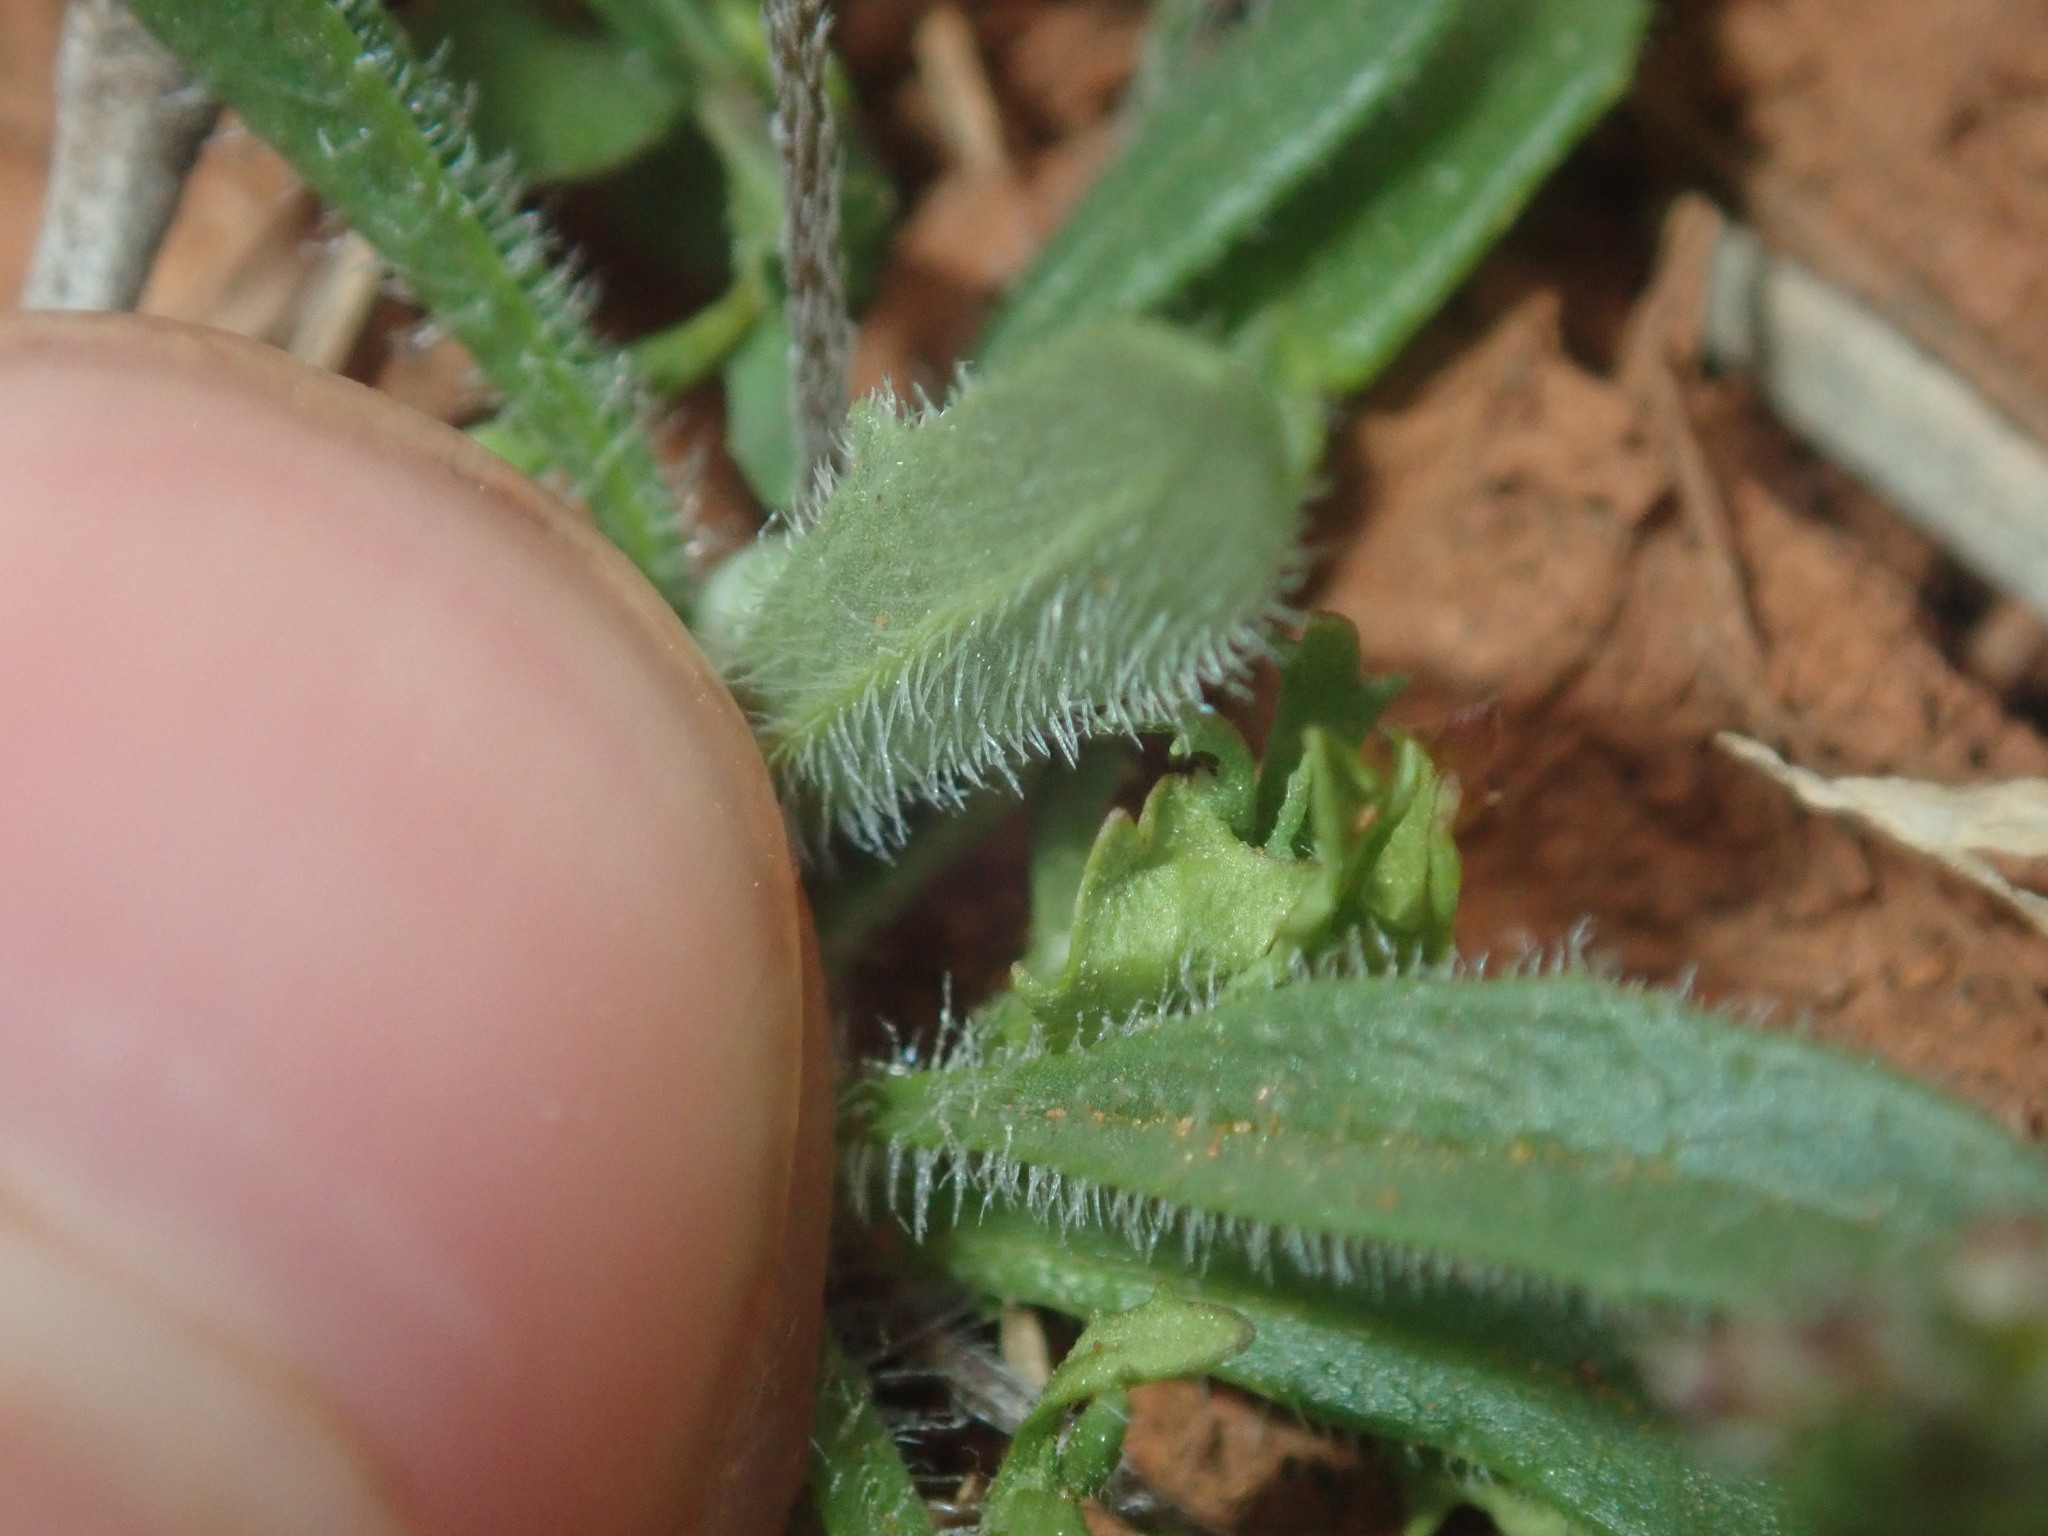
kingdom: Plantae
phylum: Tracheophyta
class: Magnoliopsida
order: Lamiales
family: Plantaginaceae
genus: Plantago
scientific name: Plantago turrifera
